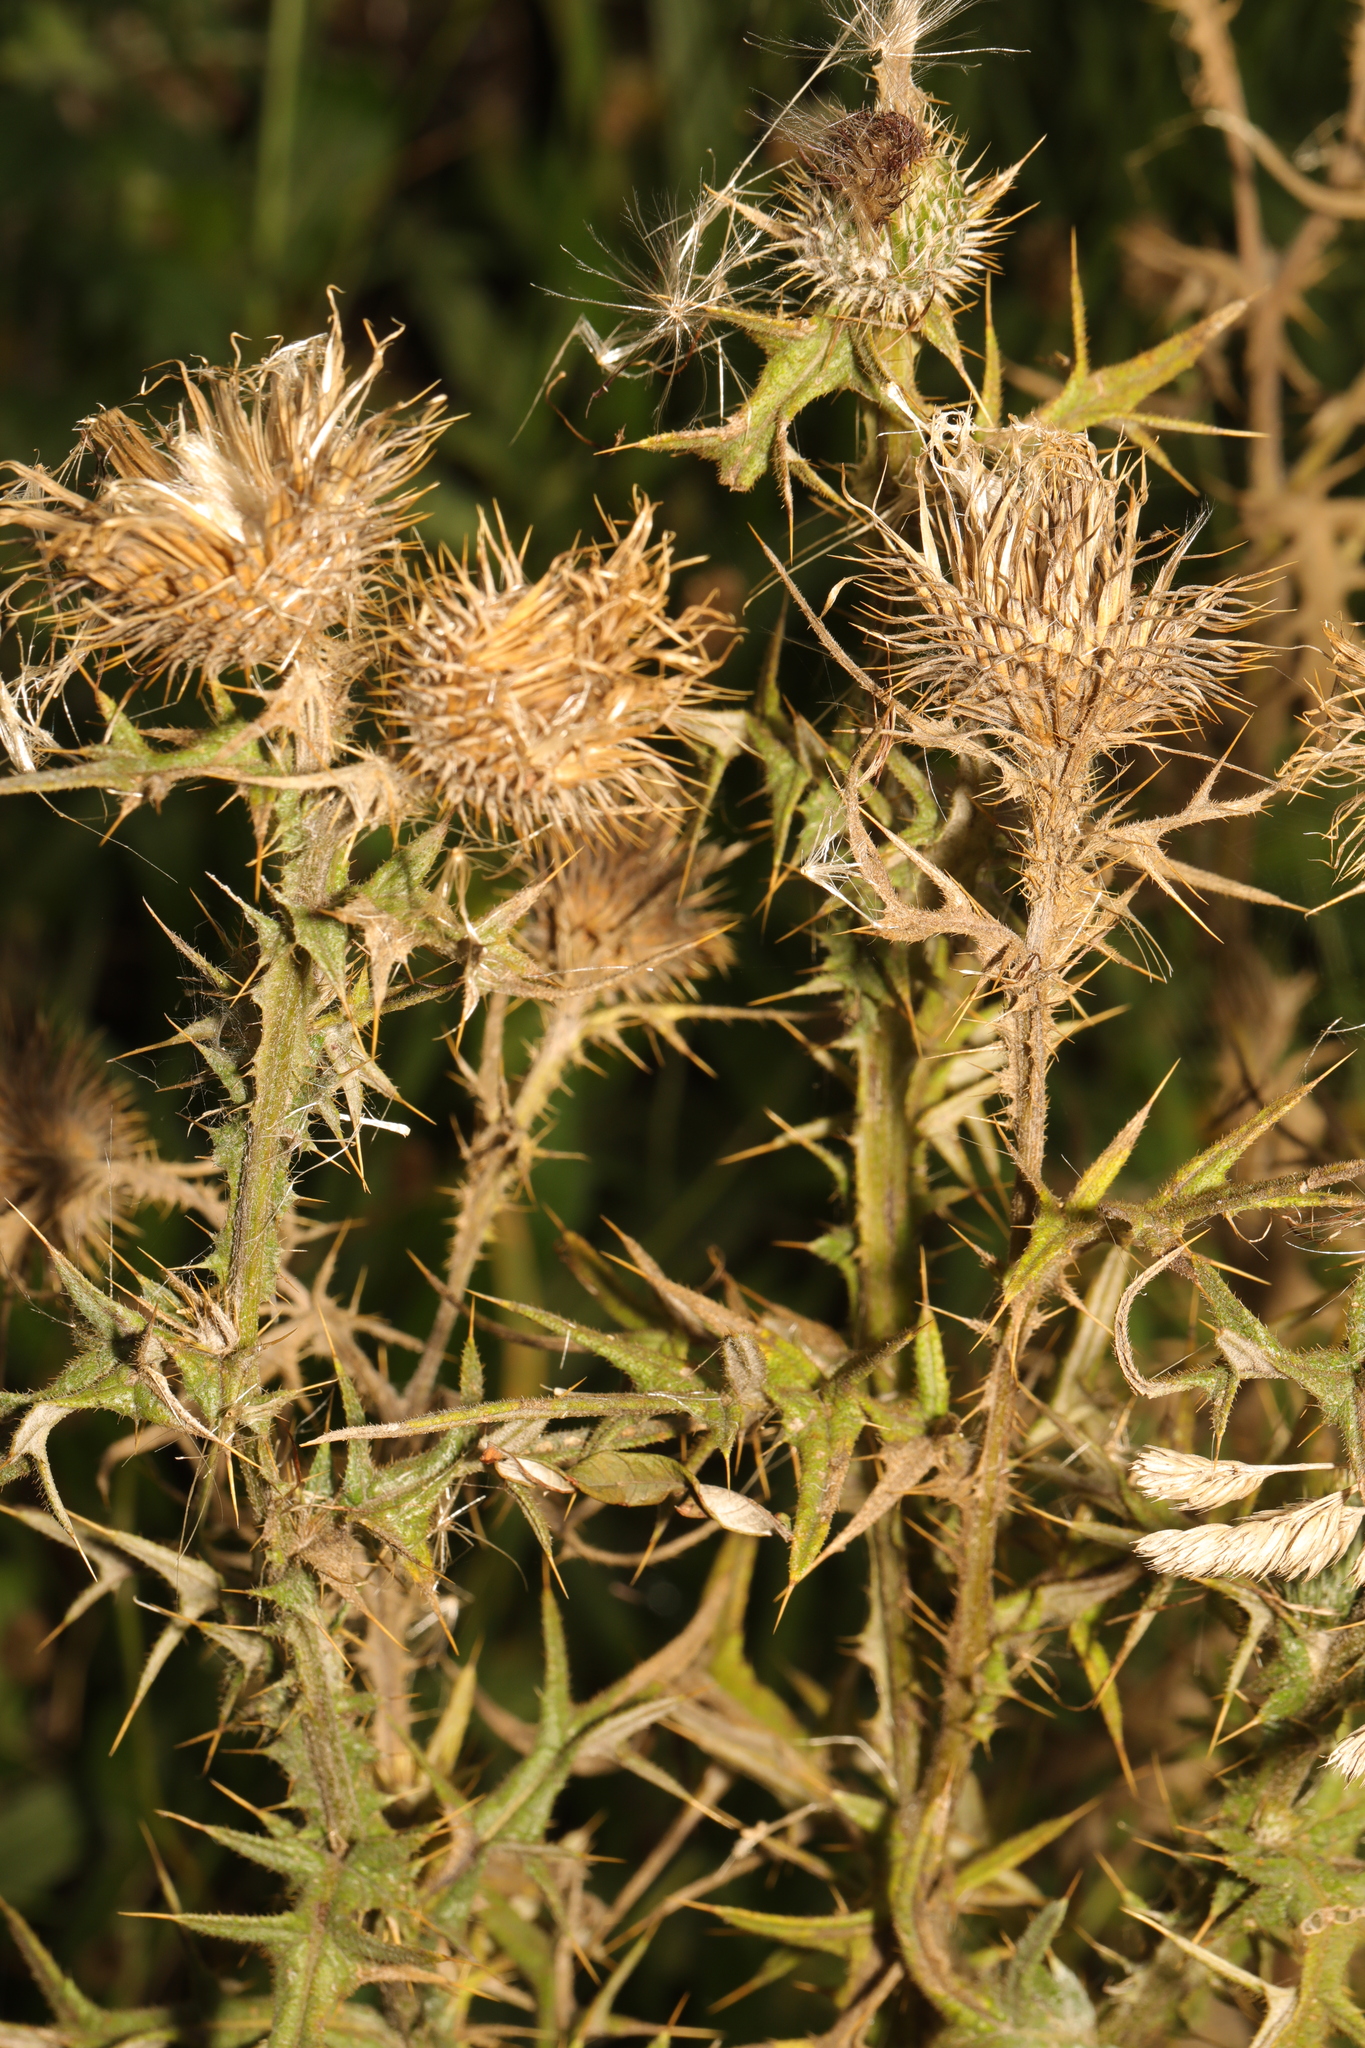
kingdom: Plantae
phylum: Tracheophyta
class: Magnoliopsida
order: Asterales
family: Asteraceae
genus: Cirsium
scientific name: Cirsium vulgare
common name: Bull thistle
